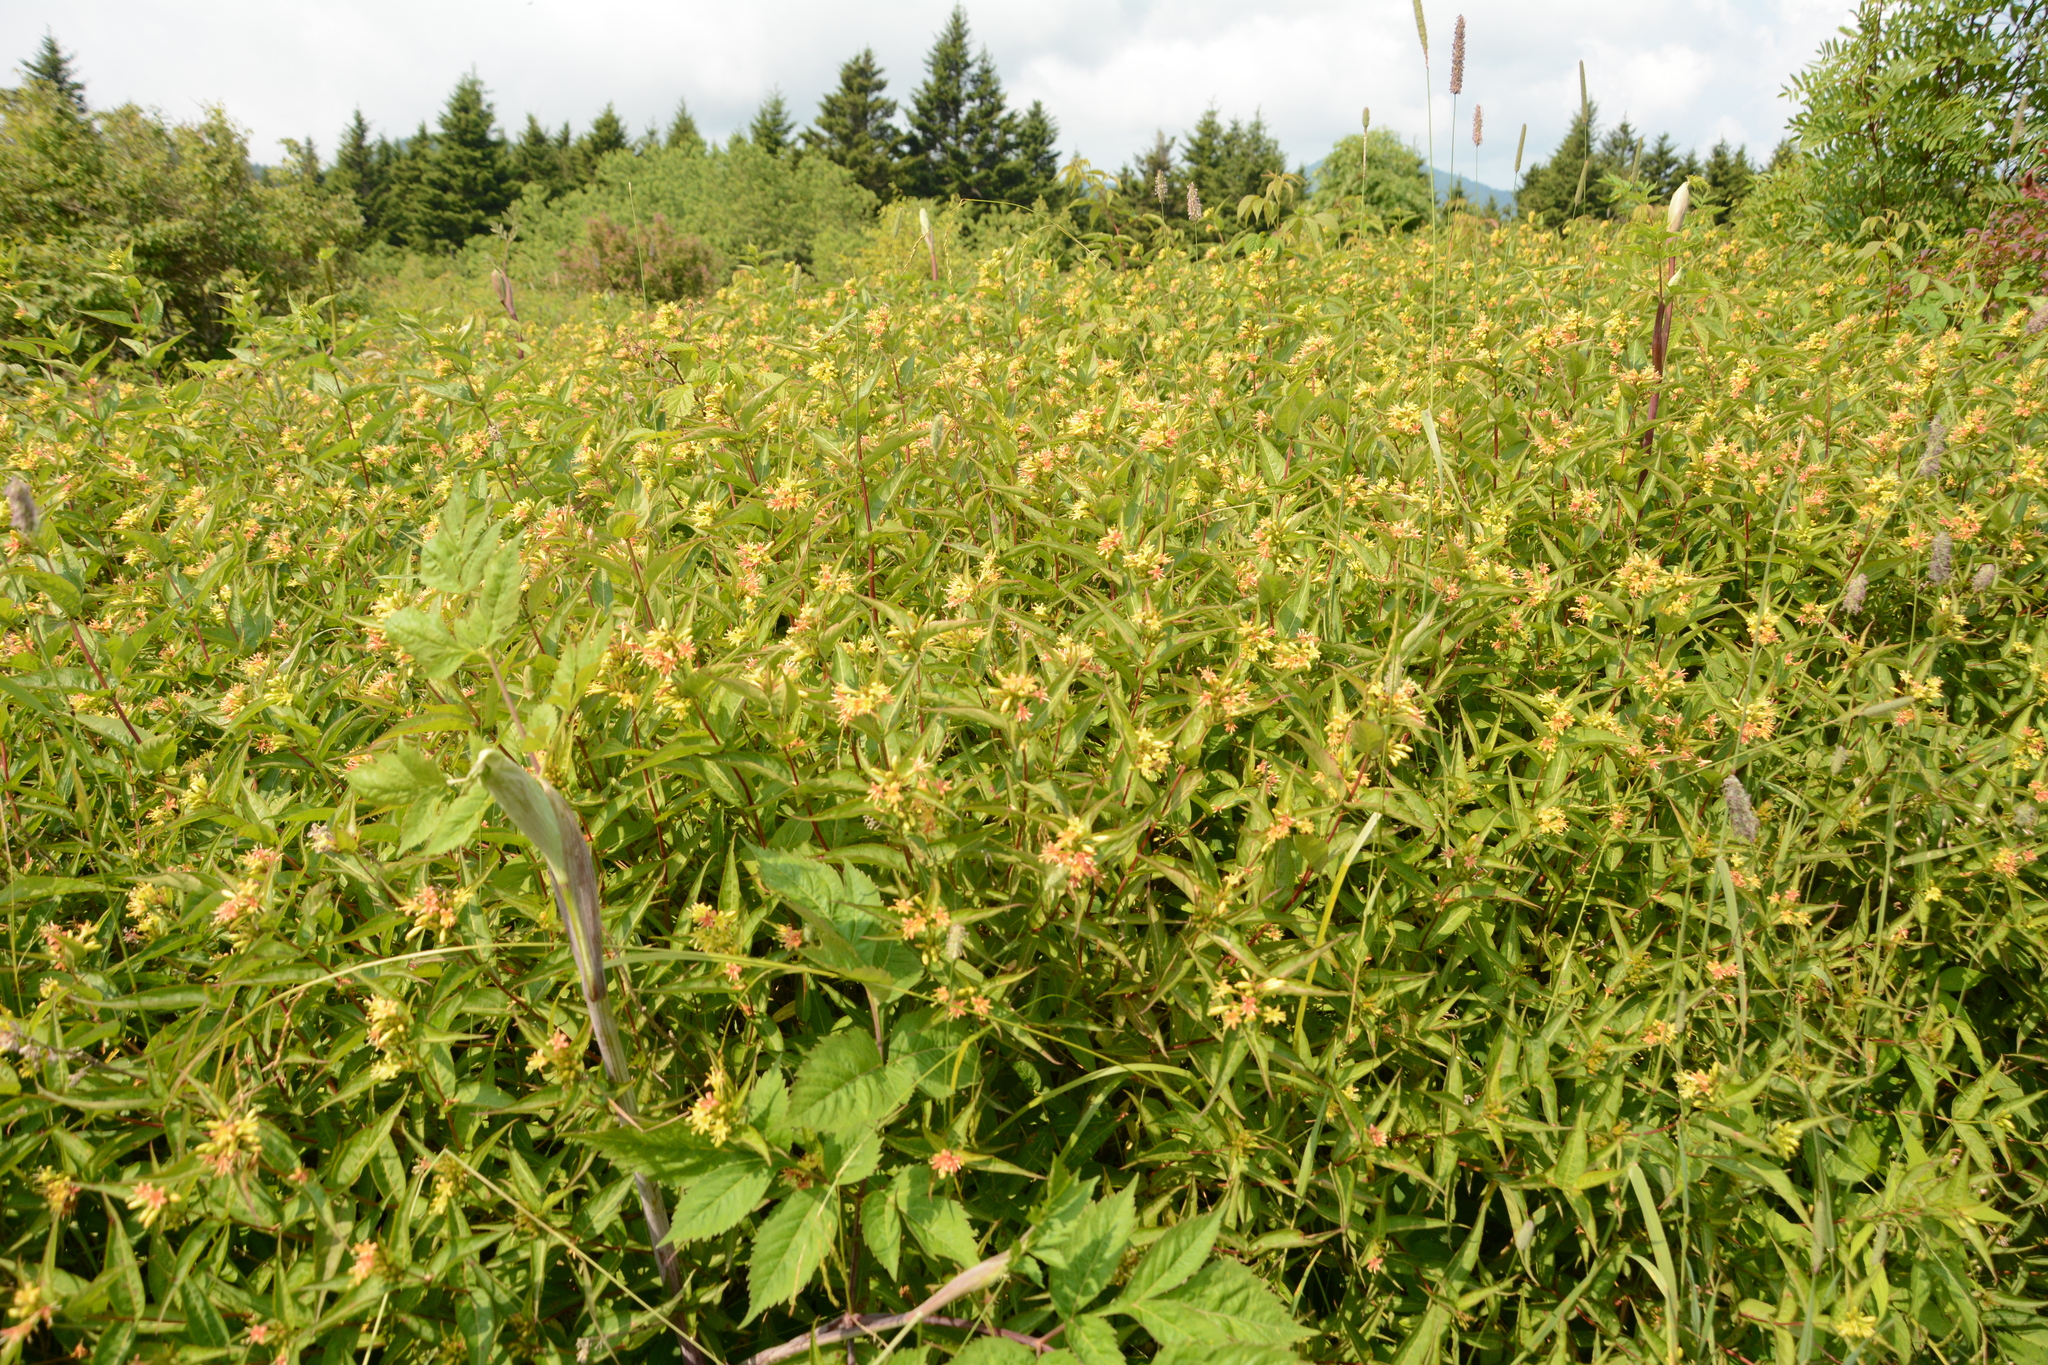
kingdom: Plantae
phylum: Tracheophyta
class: Magnoliopsida
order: Dipsacales
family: Caprifoliaceae
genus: Diervilla
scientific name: Diervilla sessilifolia
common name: Bush-honeysuckle
